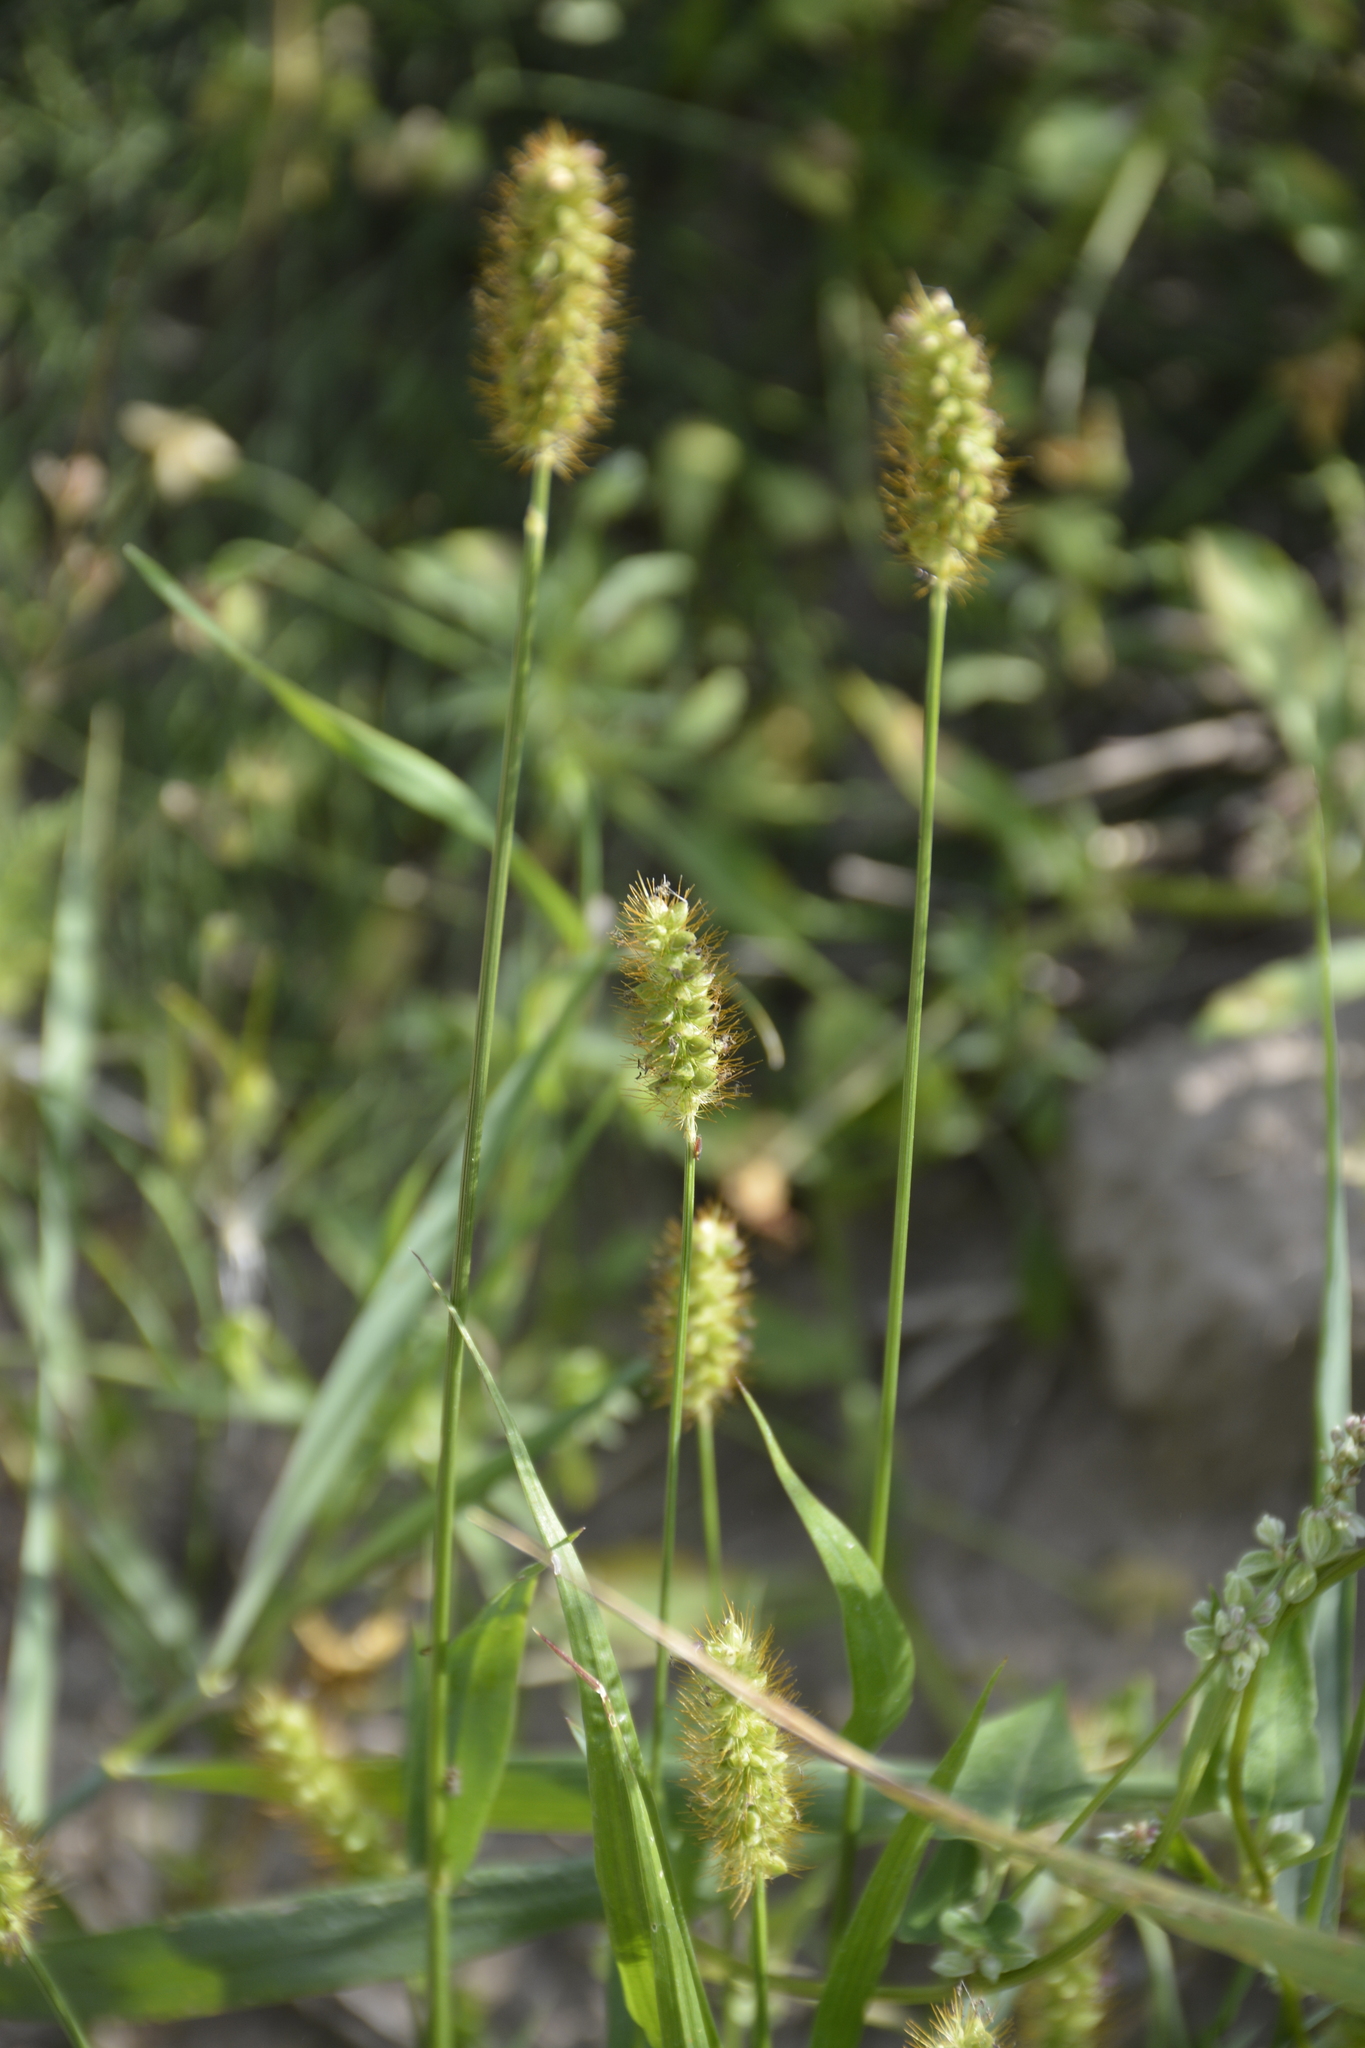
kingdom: Plantae
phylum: Tracheophyta
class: Liliopsida
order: Poales
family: Poaceae
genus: Setaria
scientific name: Setaria pumila
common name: Yellow bristle-grass
